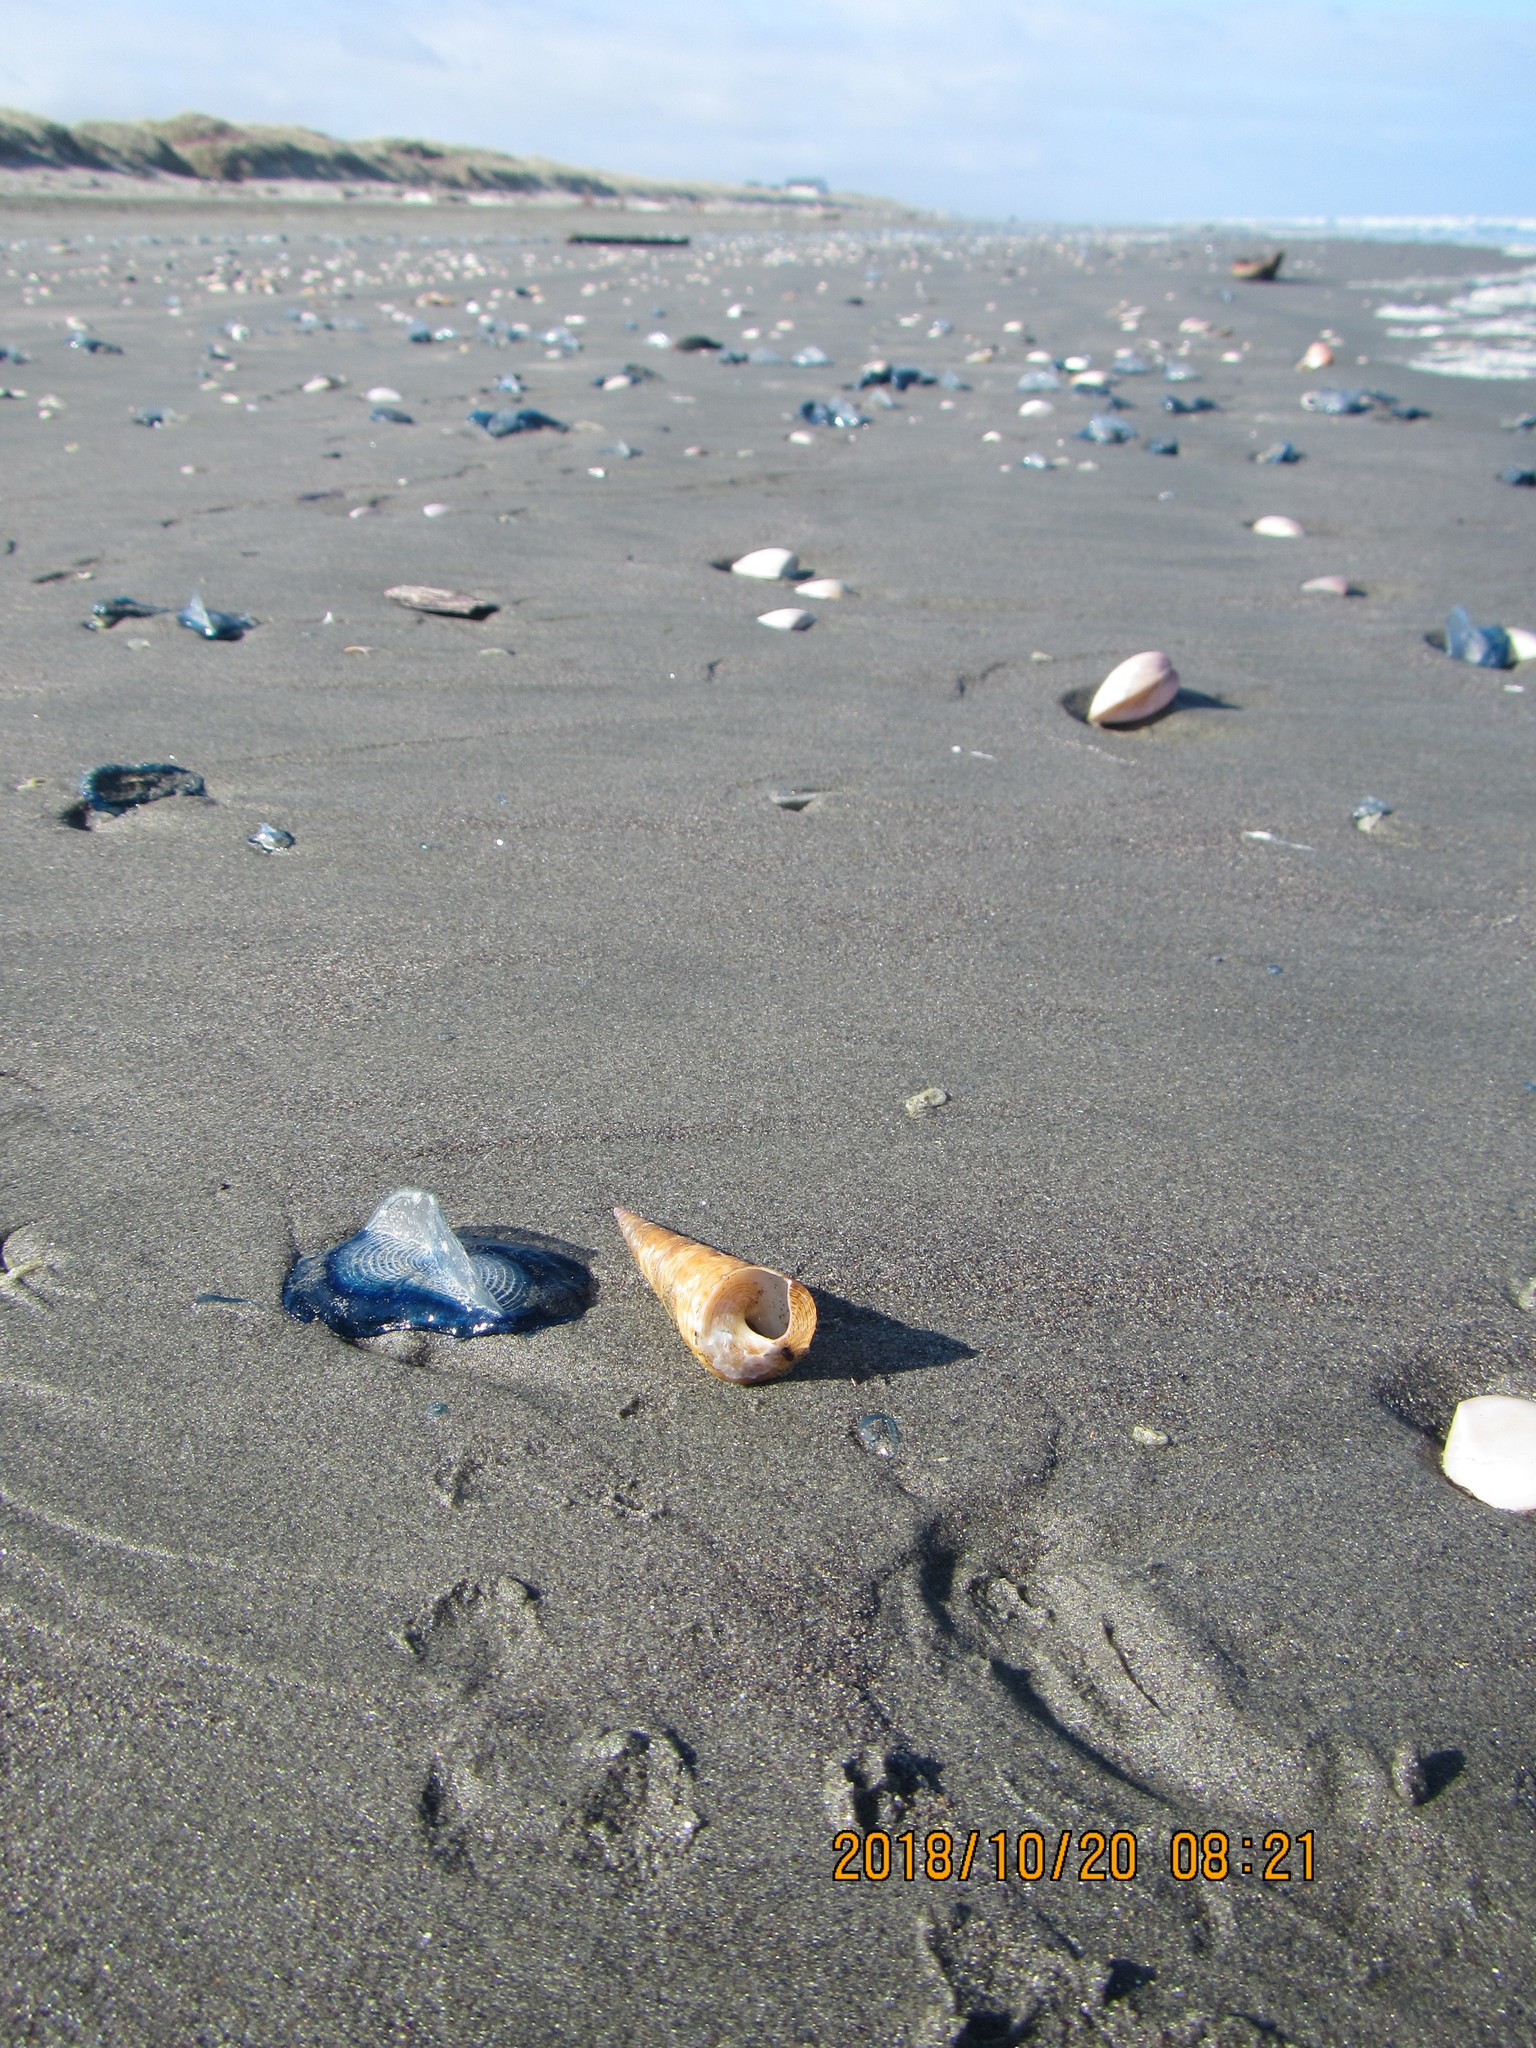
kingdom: Animalia
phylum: Mollusca
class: Gastropoda
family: Turritellidae
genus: Maoricolpus
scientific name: Maoricolpus roseus
